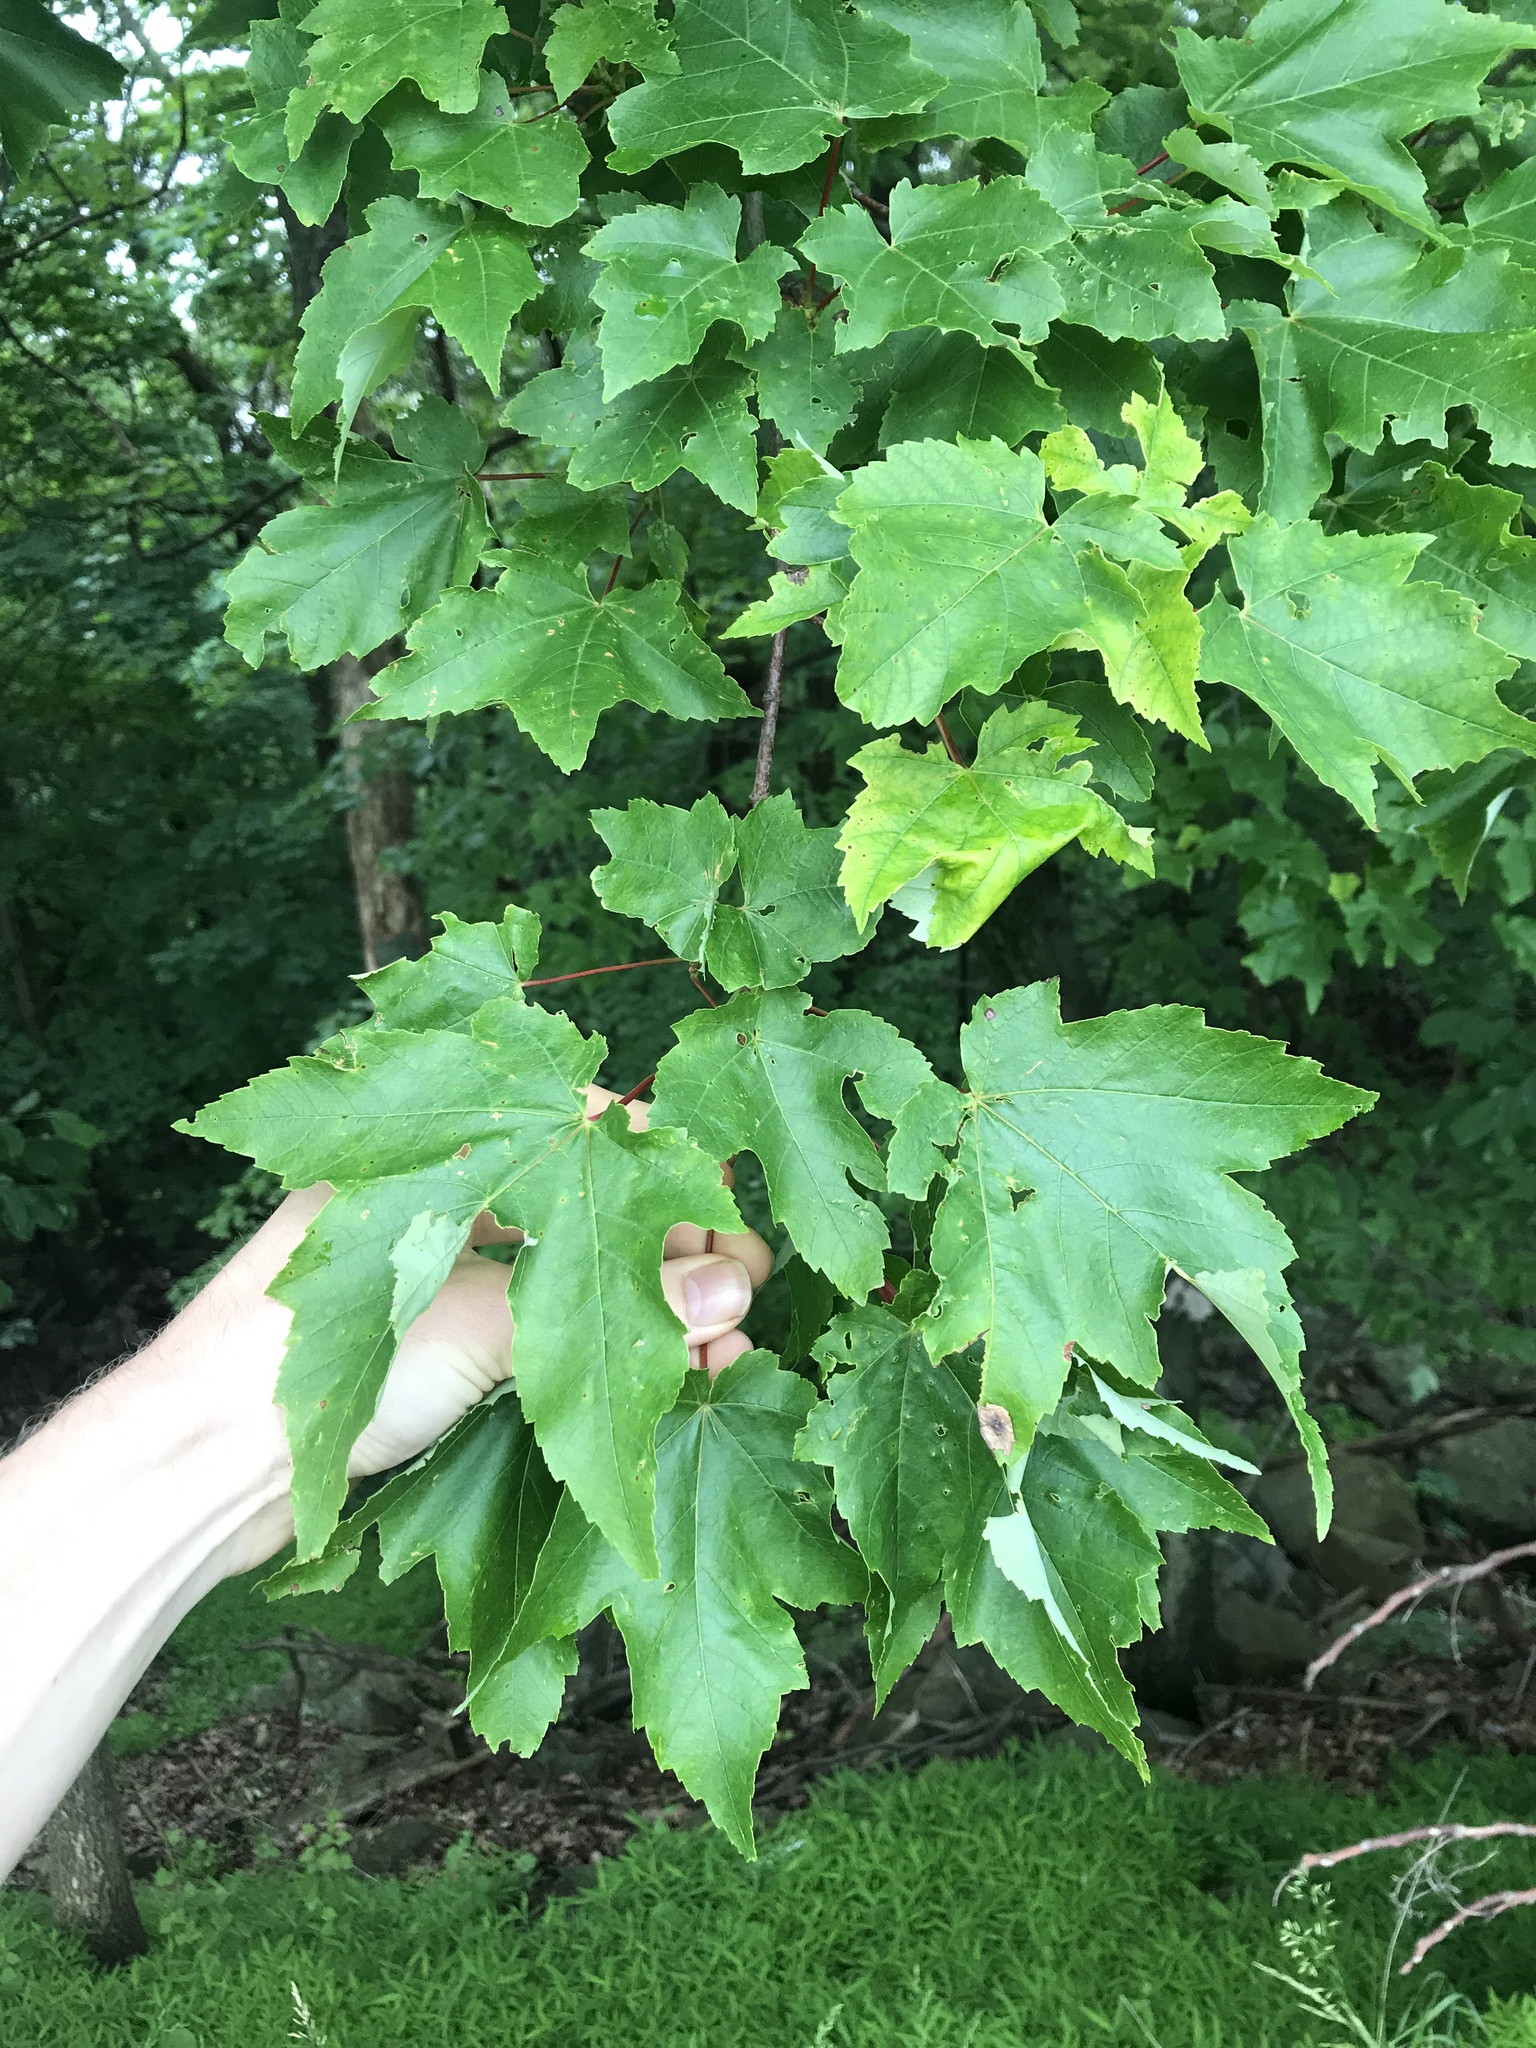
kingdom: Plantae
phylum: Tracheophyta
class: Magnoliopsida
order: Sapindales
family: Sapindaceae
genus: Acer
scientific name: Acer rubrum
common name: Red maple
